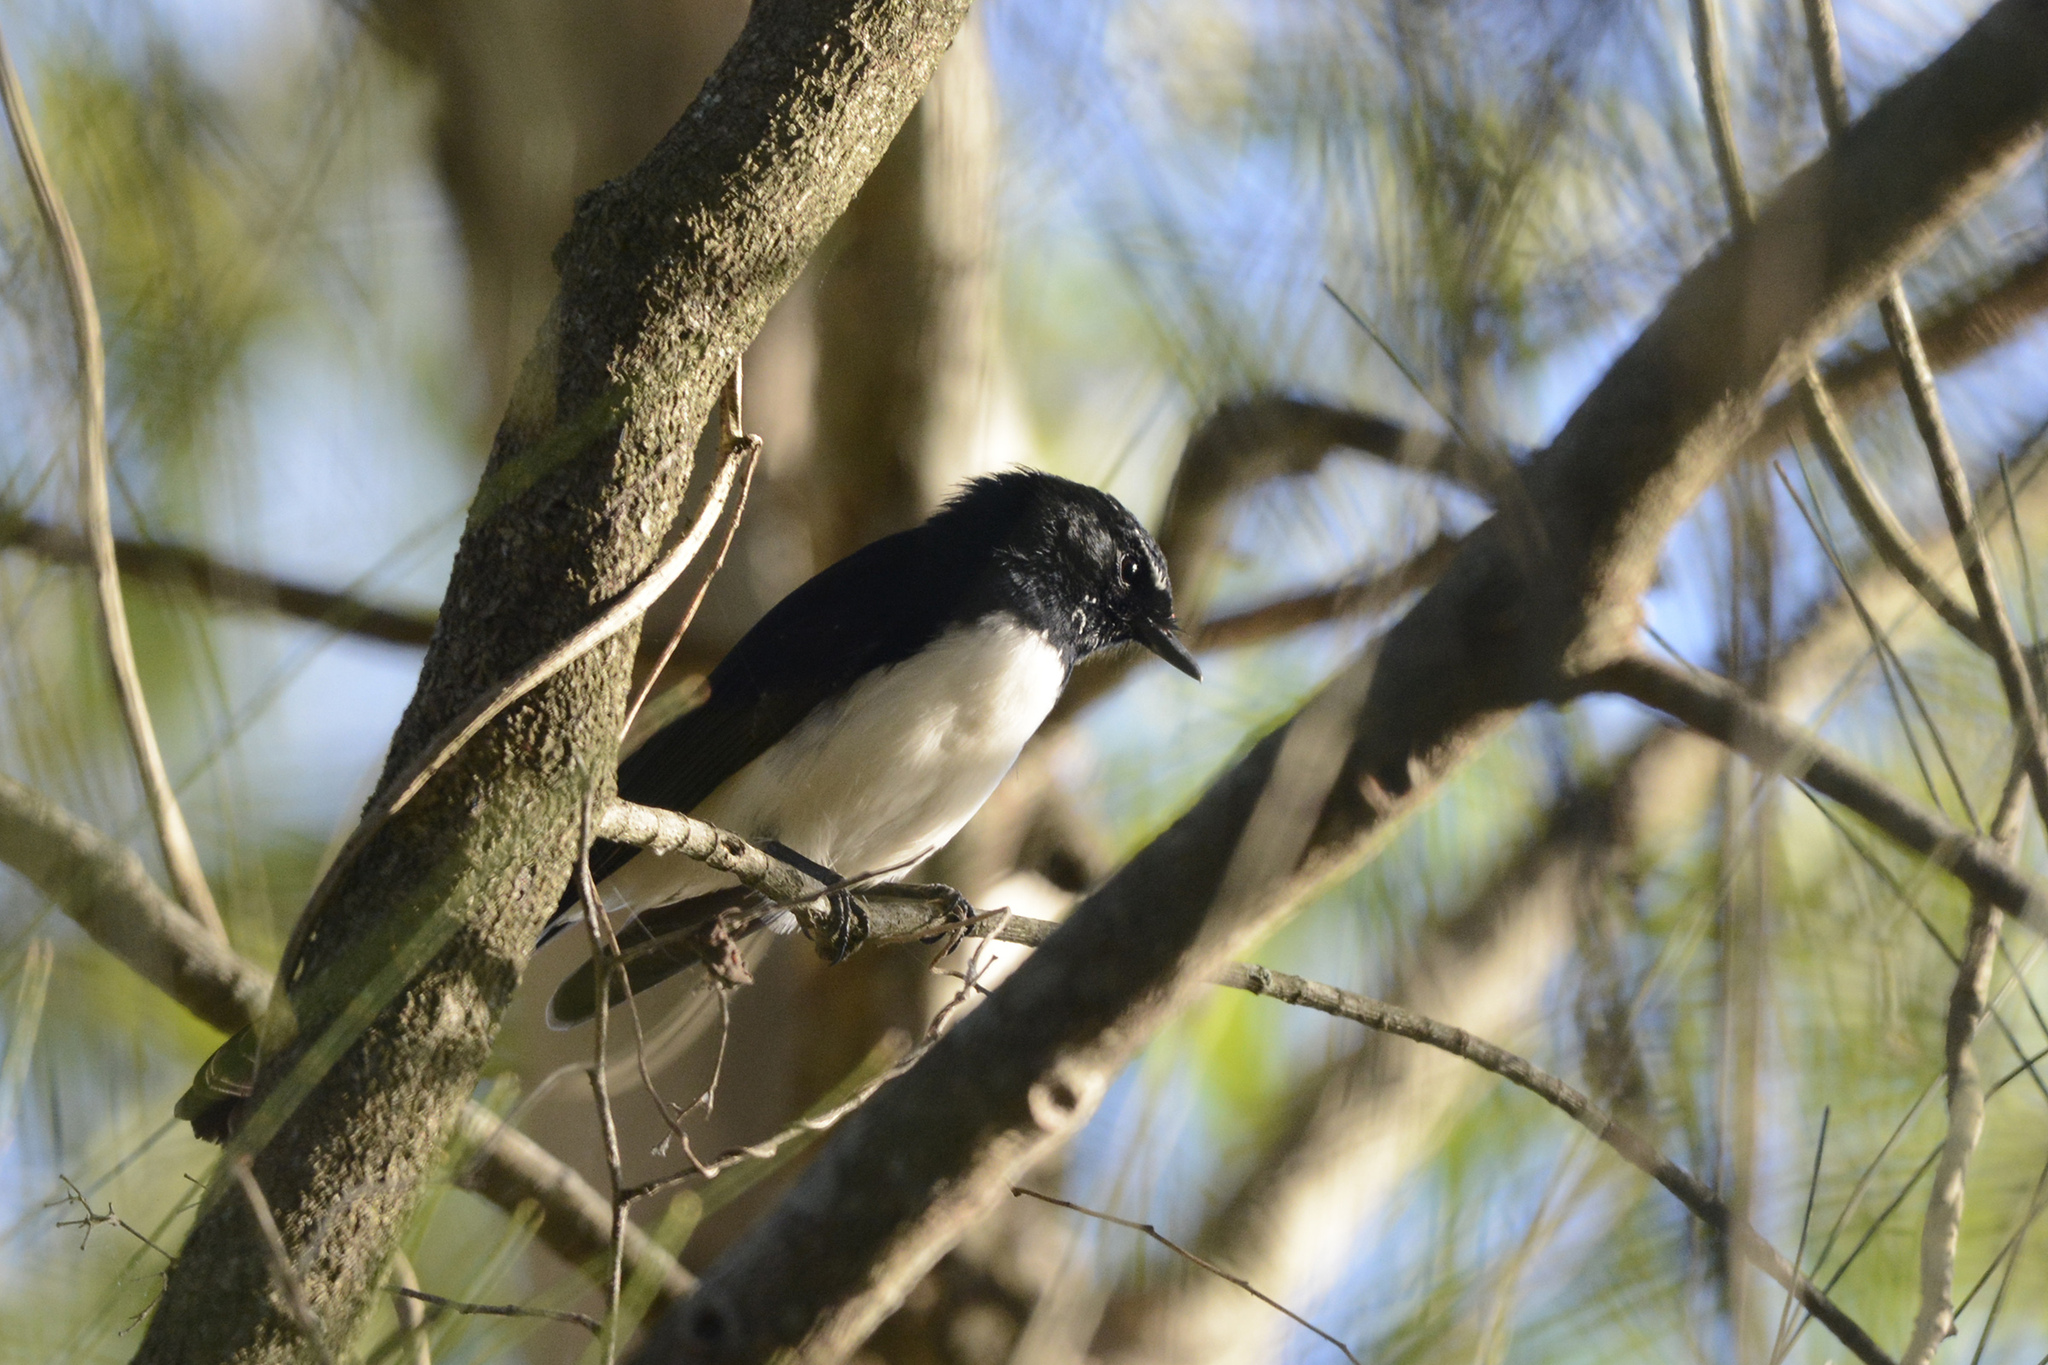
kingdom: Animalia
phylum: Chordata
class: Aves
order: Passeriformes
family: Rhipiduridae
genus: Rhipidura
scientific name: Rhipidura leucophrys
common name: Willie wagtail
